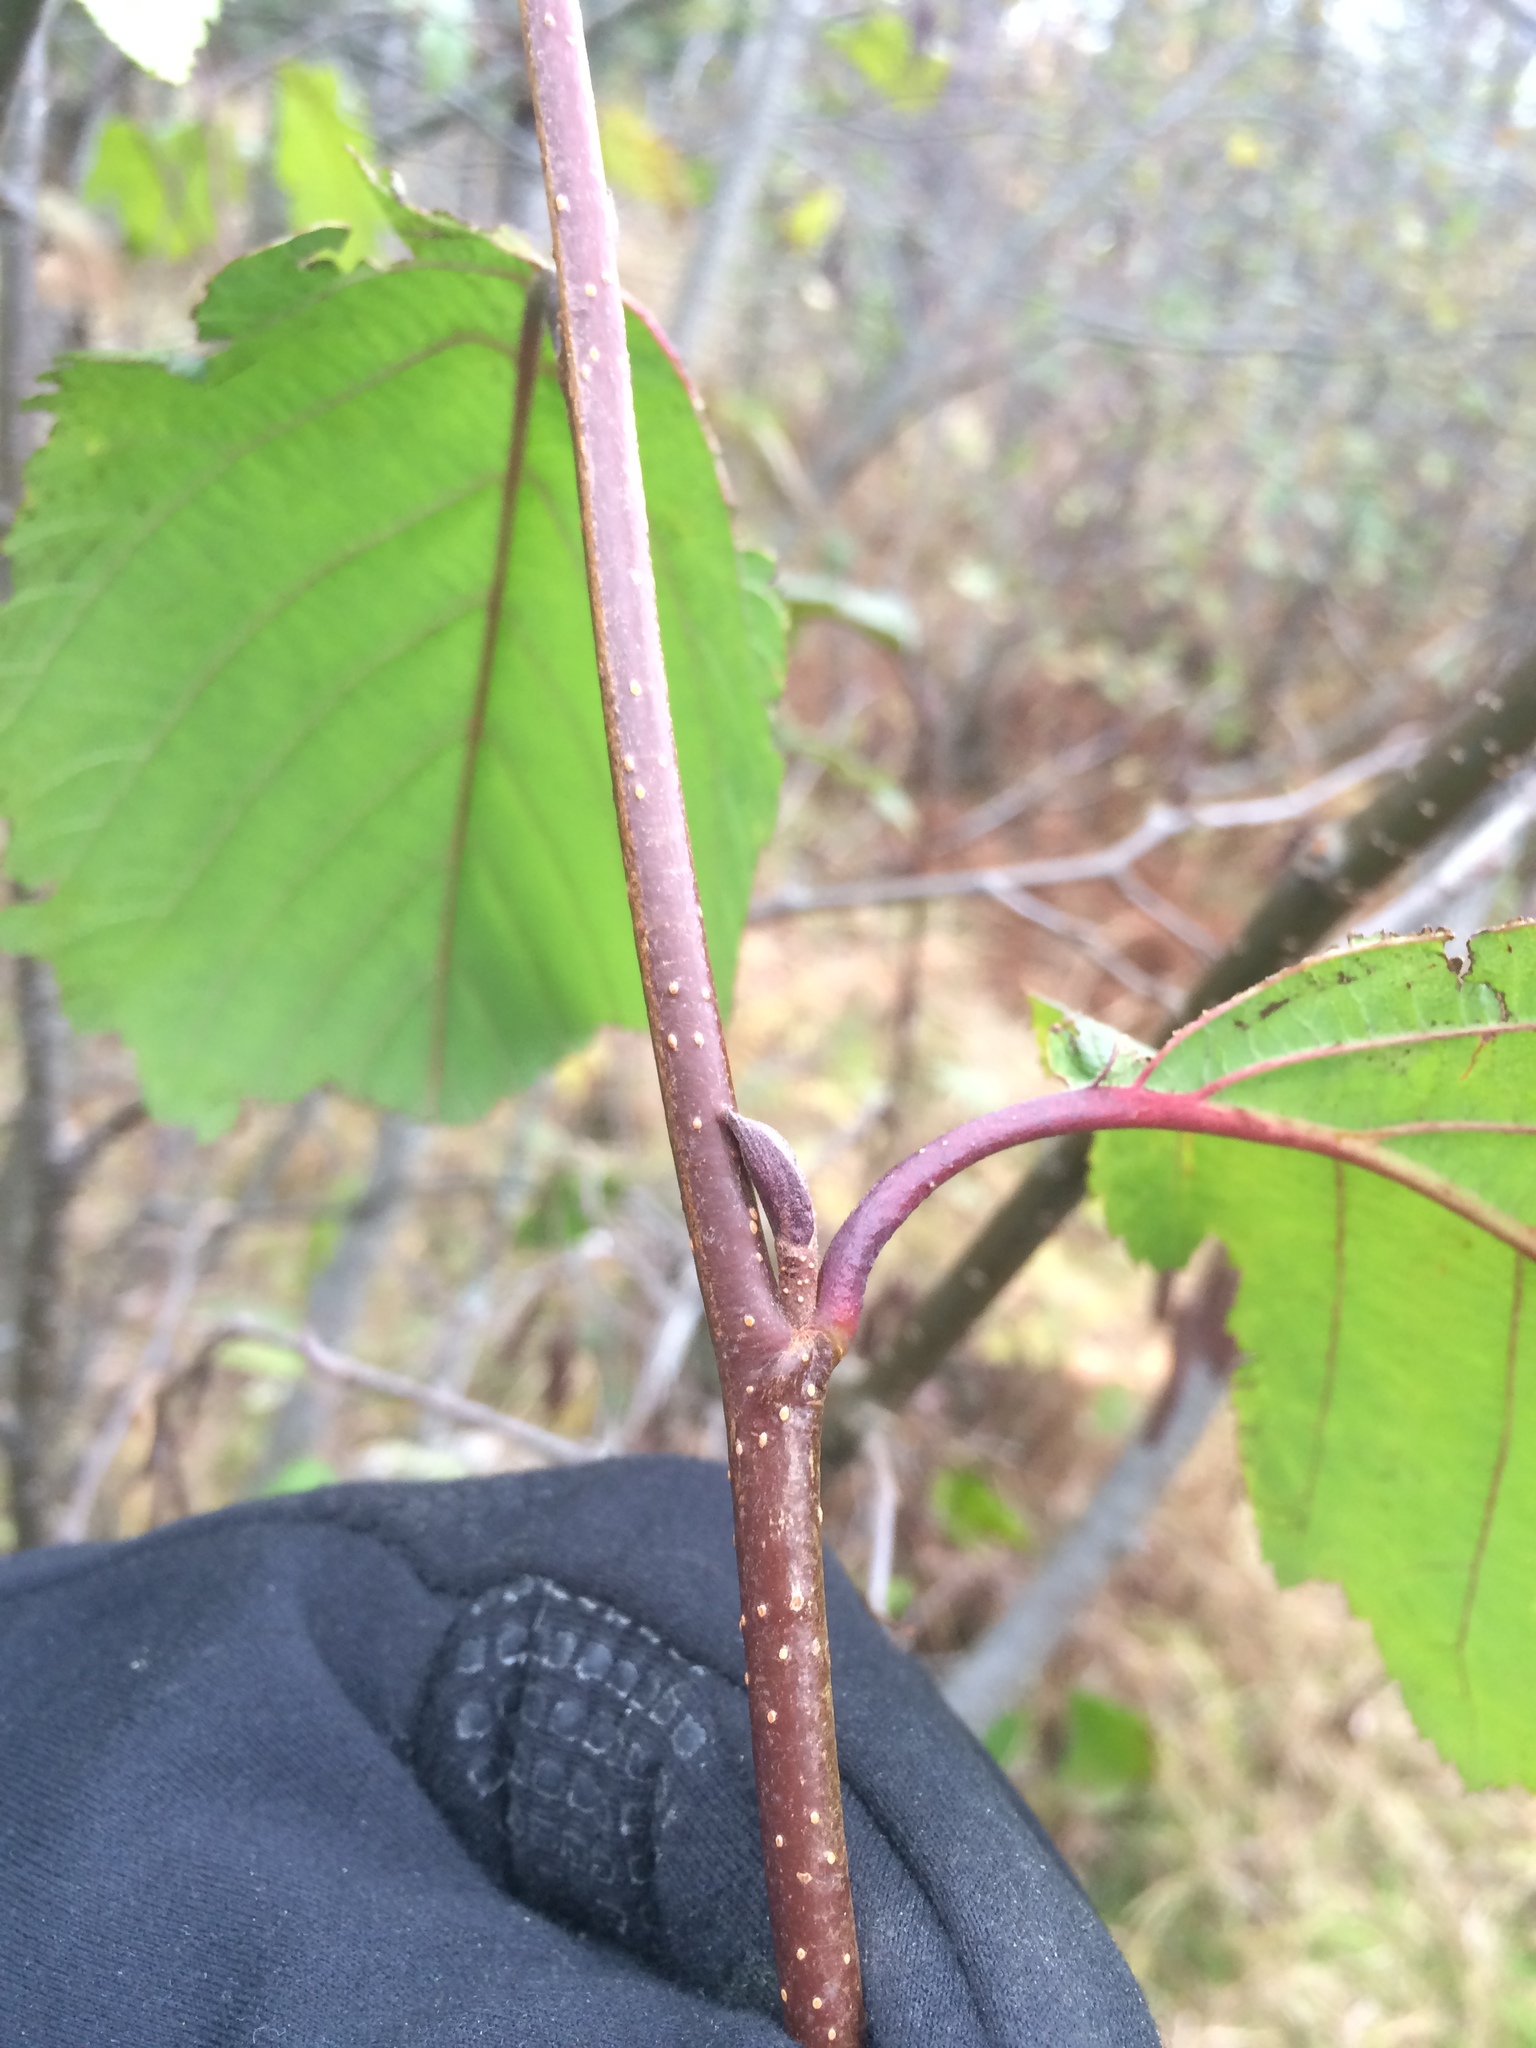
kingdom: Plantae
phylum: Tracheophyta
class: Magnoliopsida
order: Fagales
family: Betulaceae
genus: Alnus
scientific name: Alnus incana
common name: Grey alder
